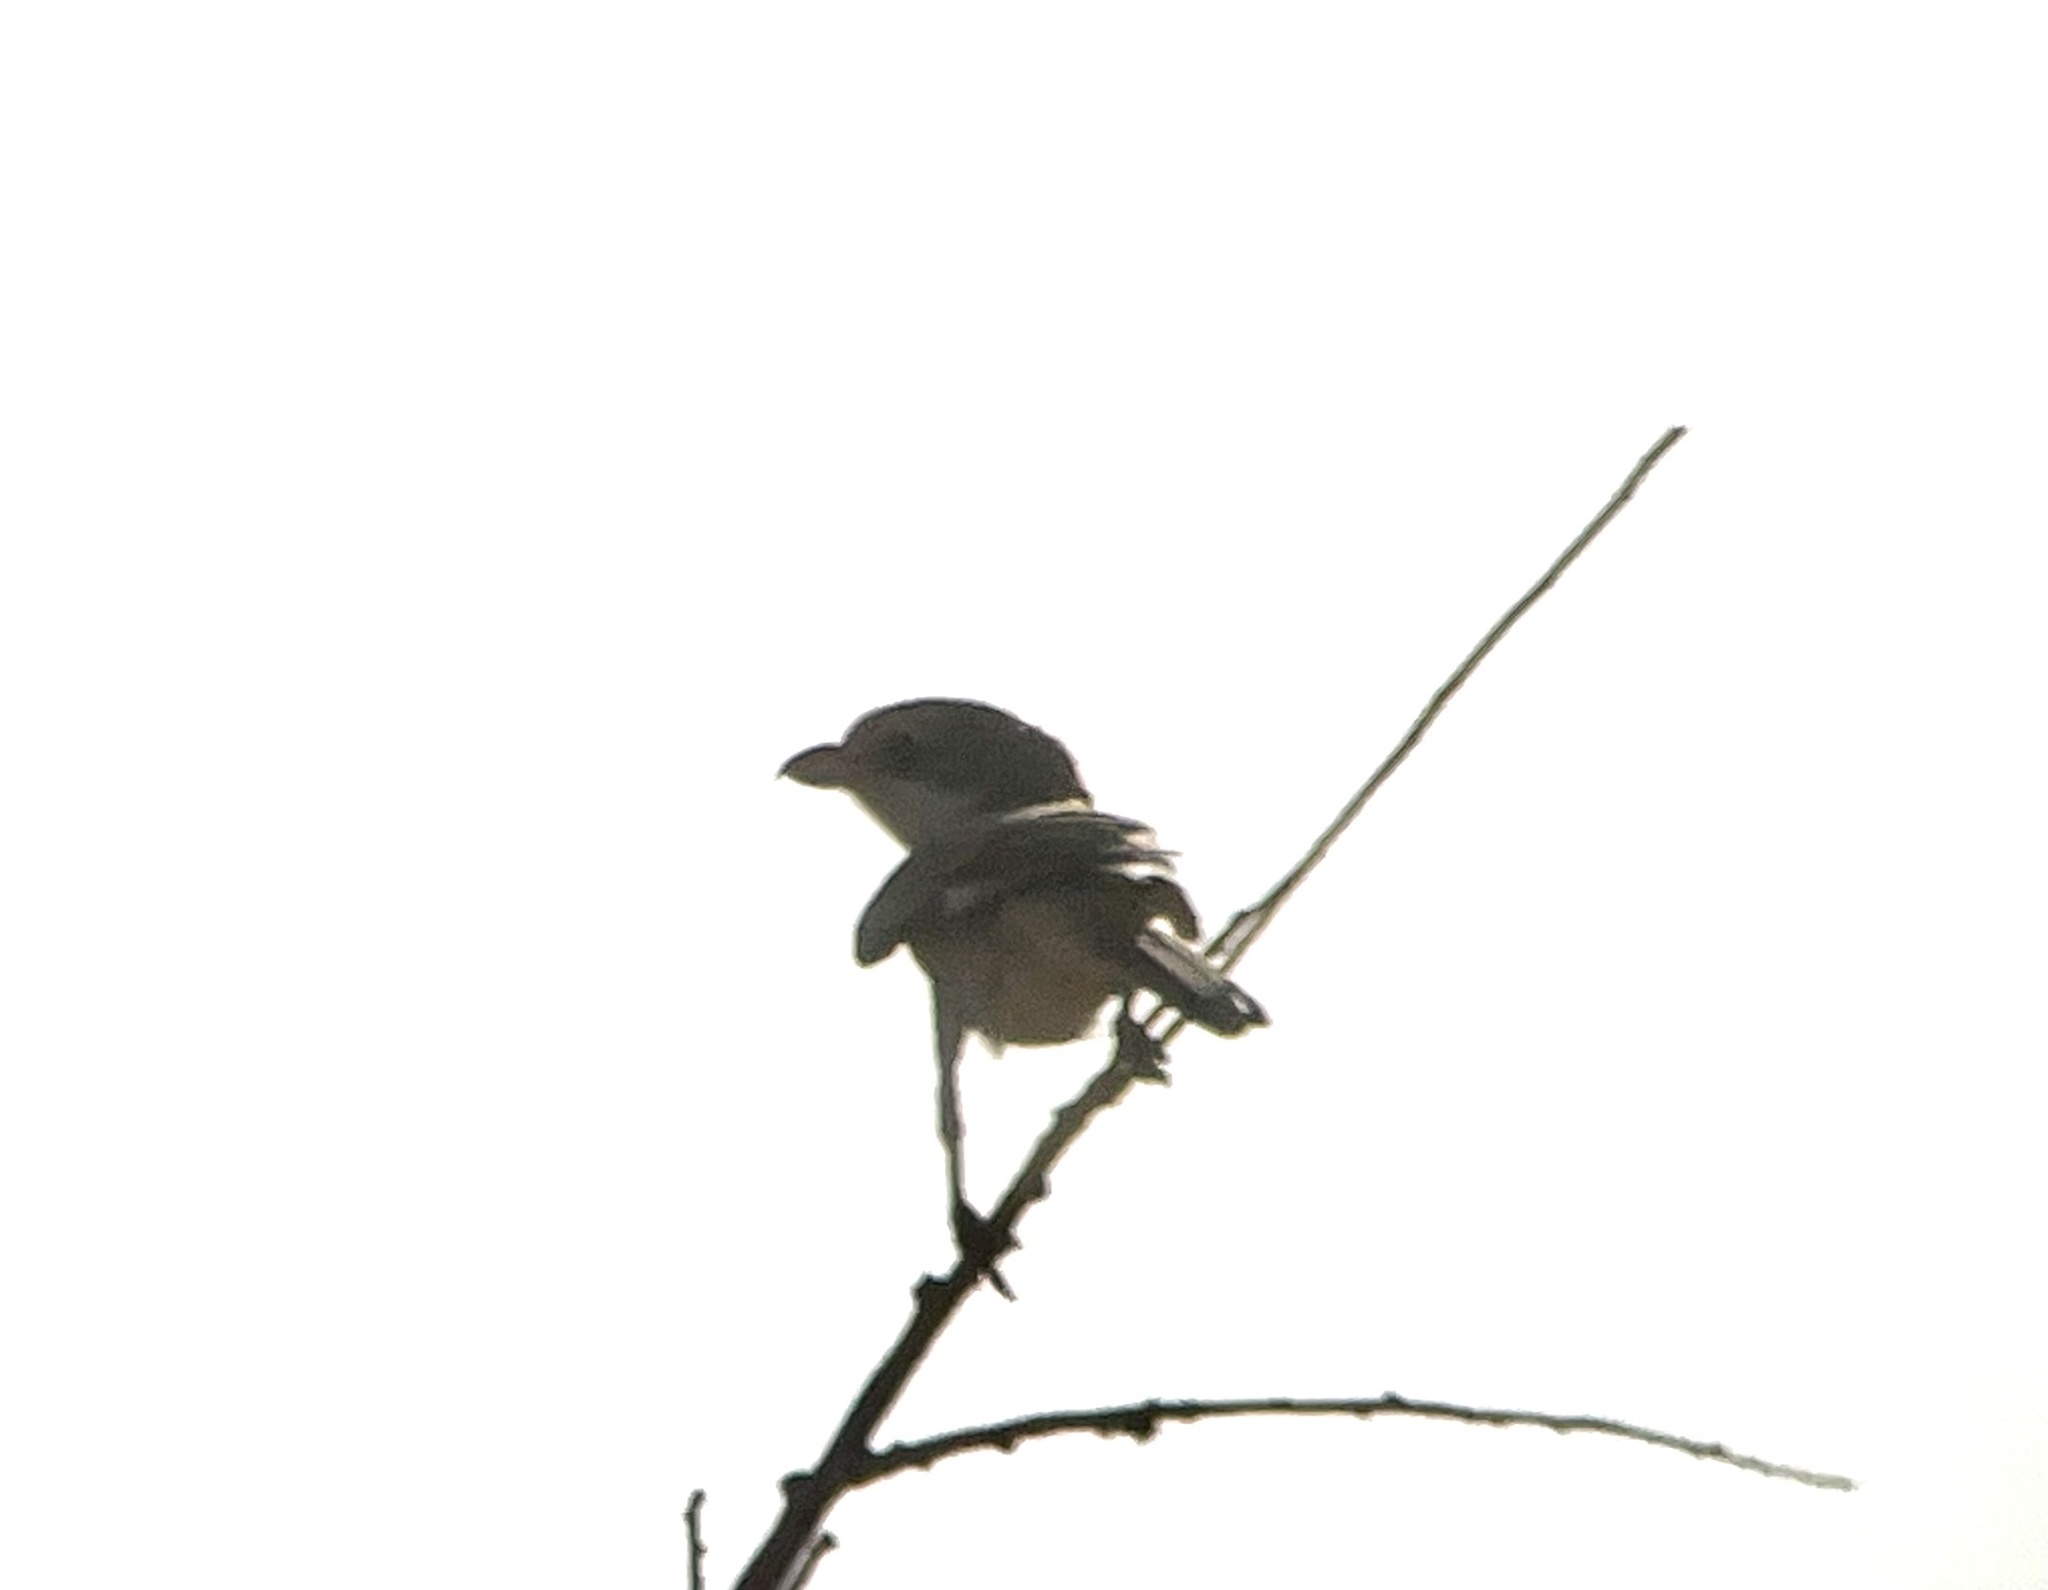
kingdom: Animalia
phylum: Chordata
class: Aves
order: Passeriformes
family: Laniidae
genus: Lanius
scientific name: Lanius senator
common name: Woodchat shrike
